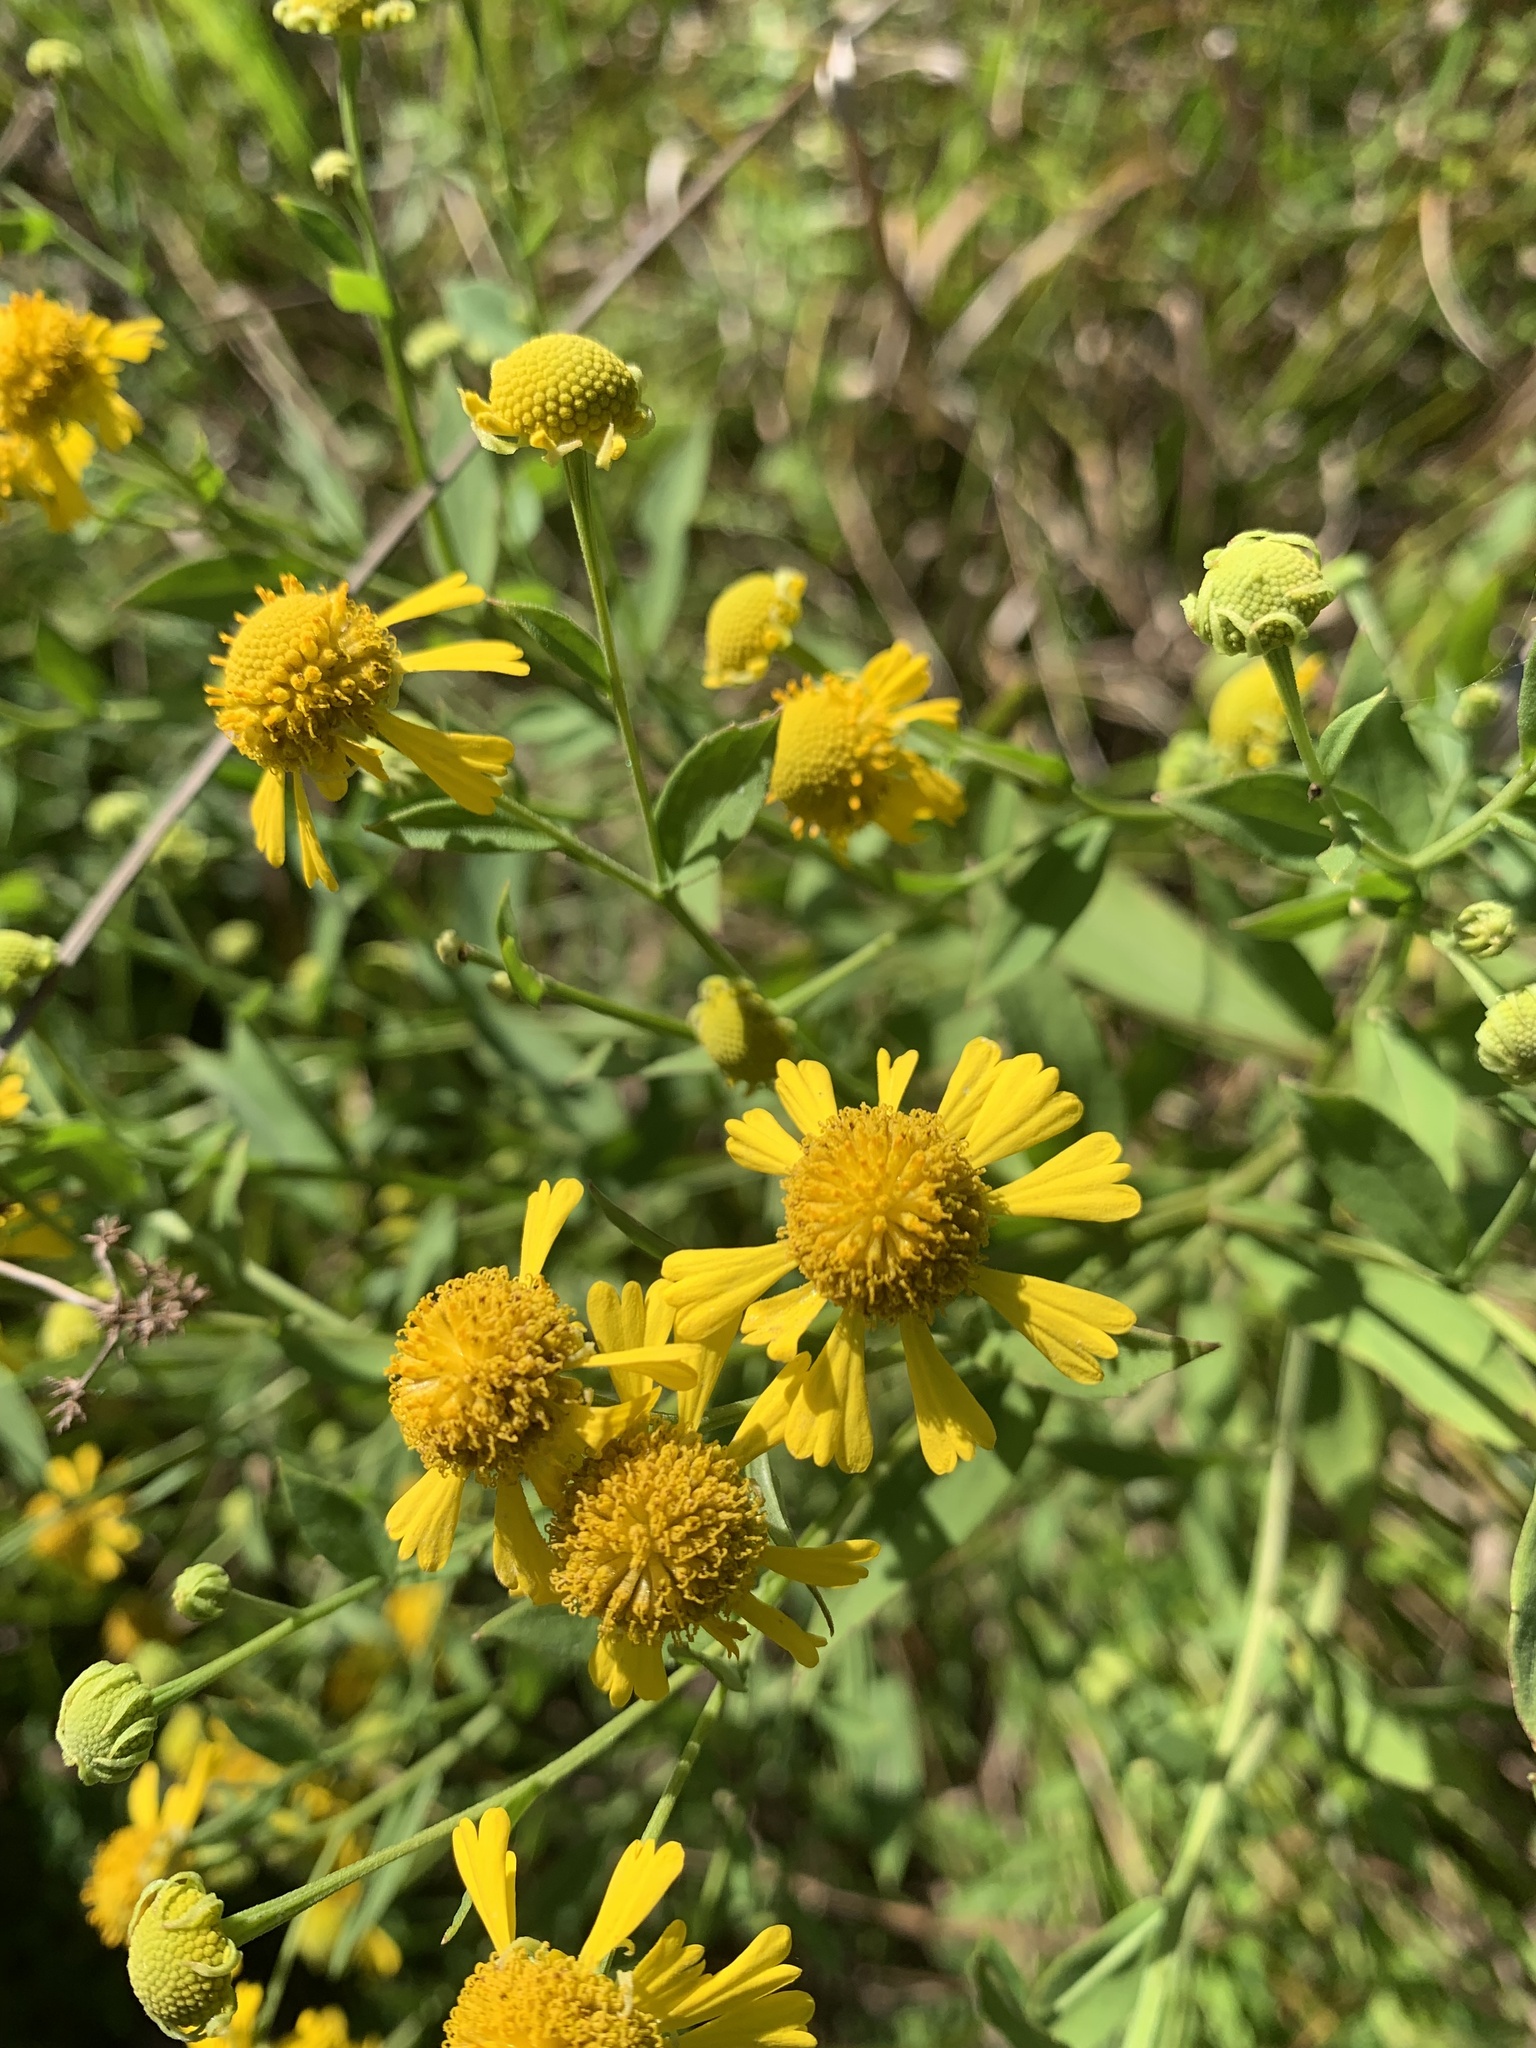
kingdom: Plantae
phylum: Tracheophyta
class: Magnoliopsida
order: Asterales
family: Asteraceae
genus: Helenium
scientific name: Helenium autumnale
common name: Sneezeweed
